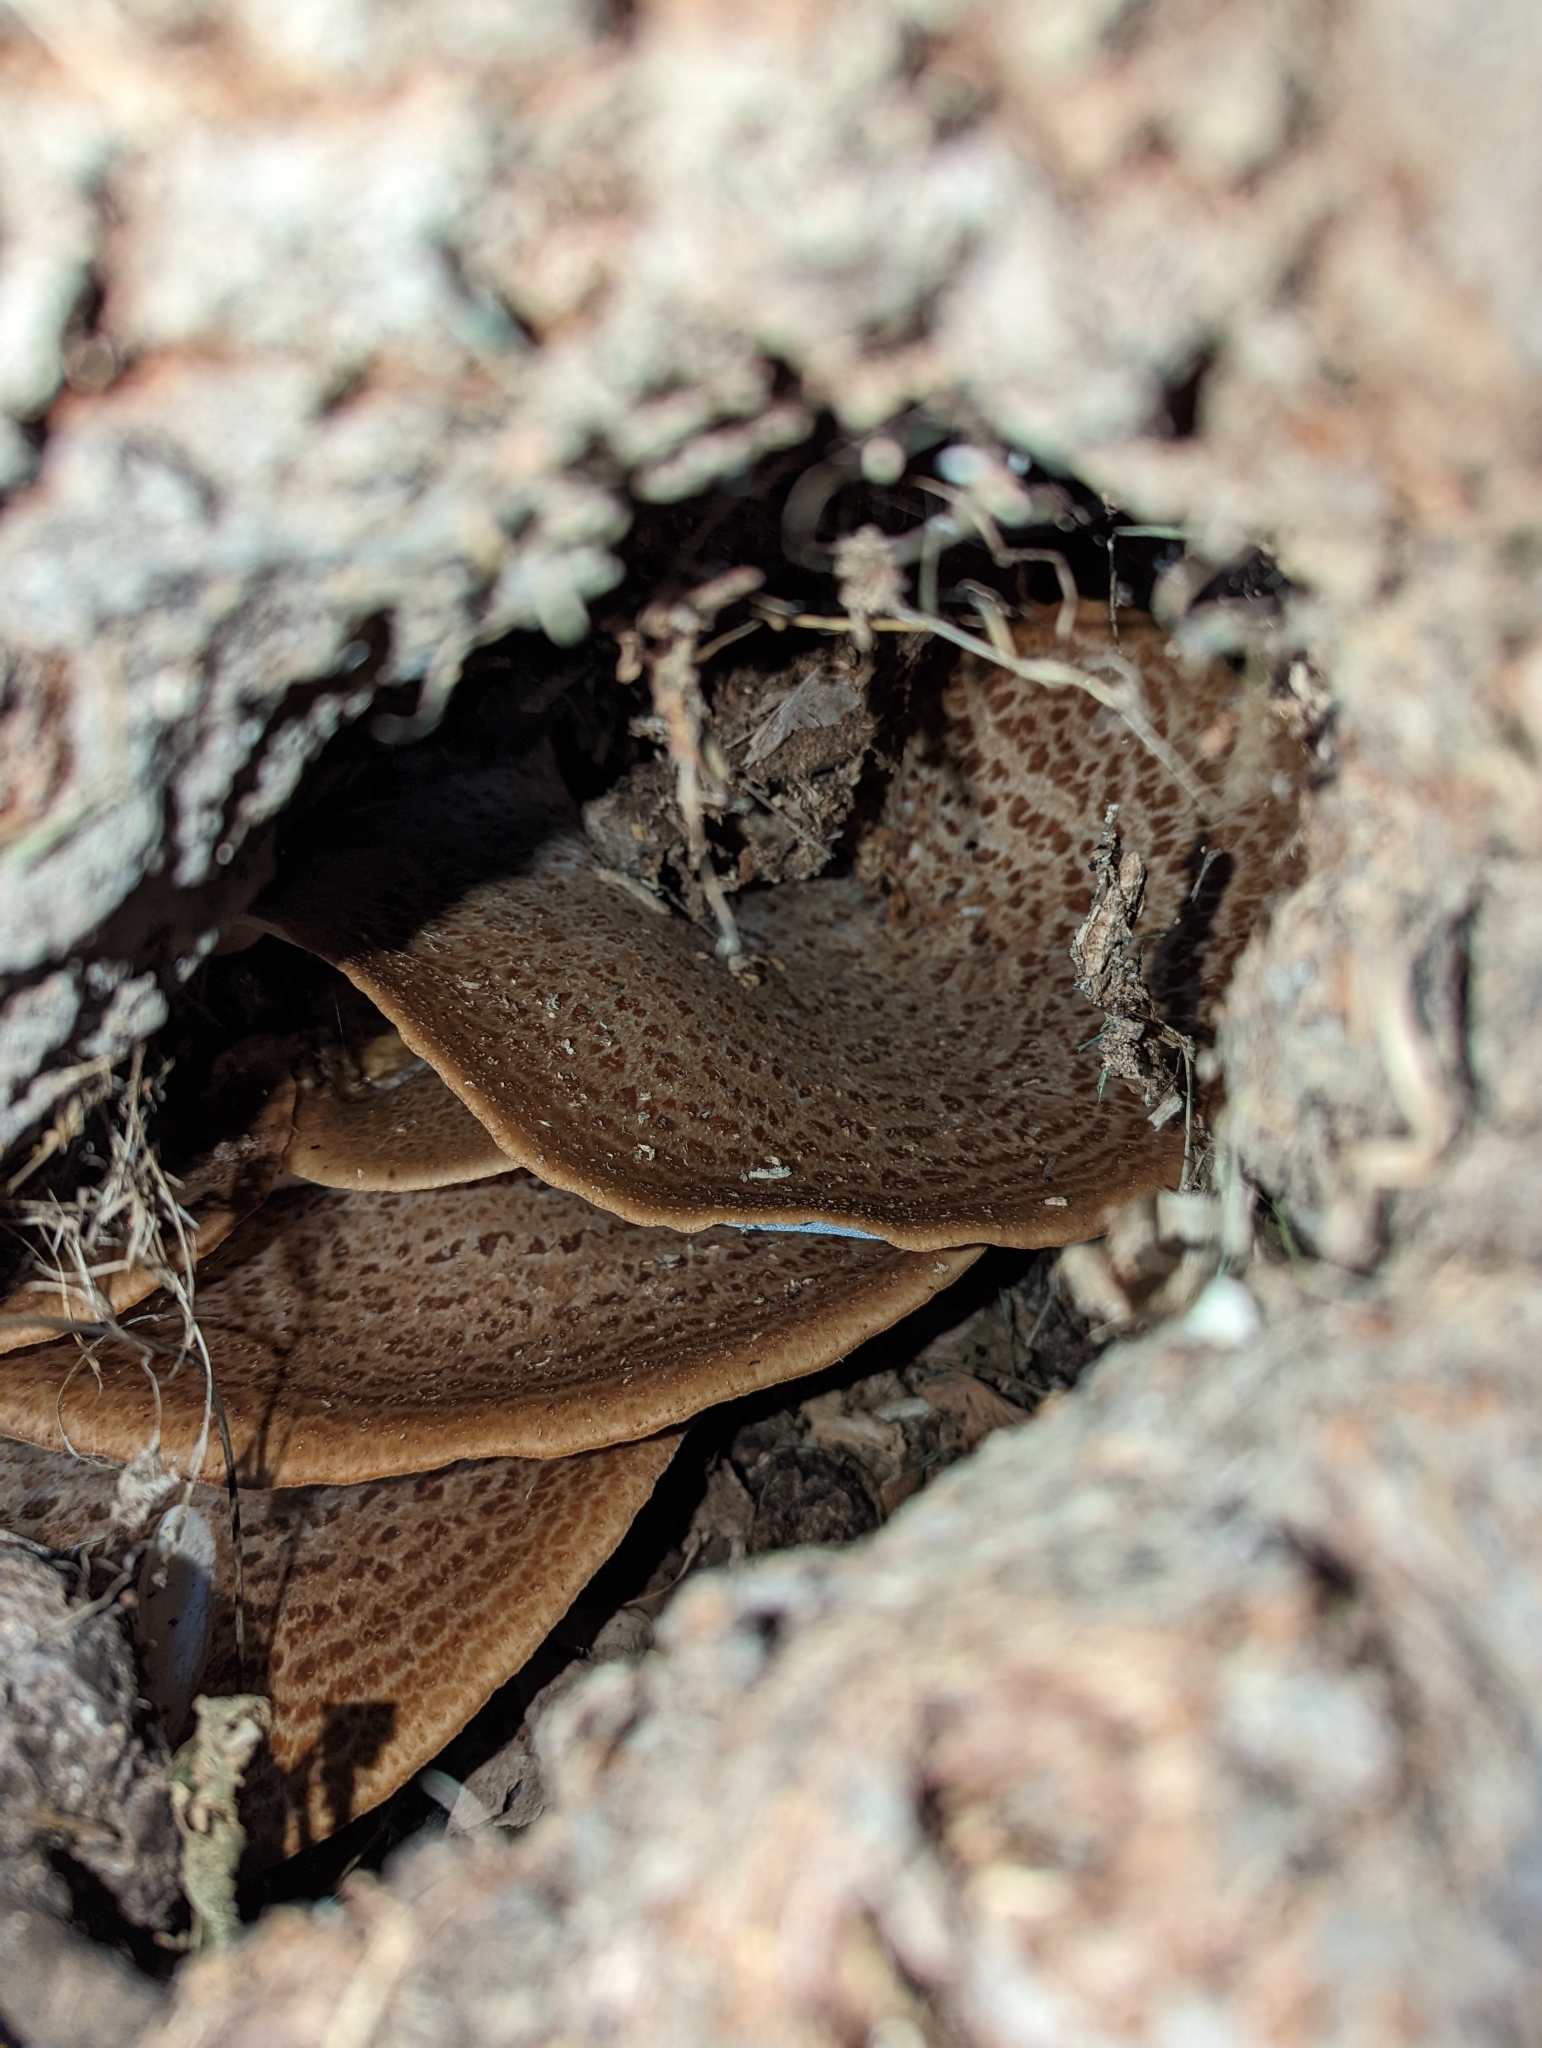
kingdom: Fungi
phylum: Basidiomycota
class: Agaricomycetes
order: Polyporales
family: Polyporaceae
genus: Cerioporus
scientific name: Cerioporus squamosus
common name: Dryad's saddle
